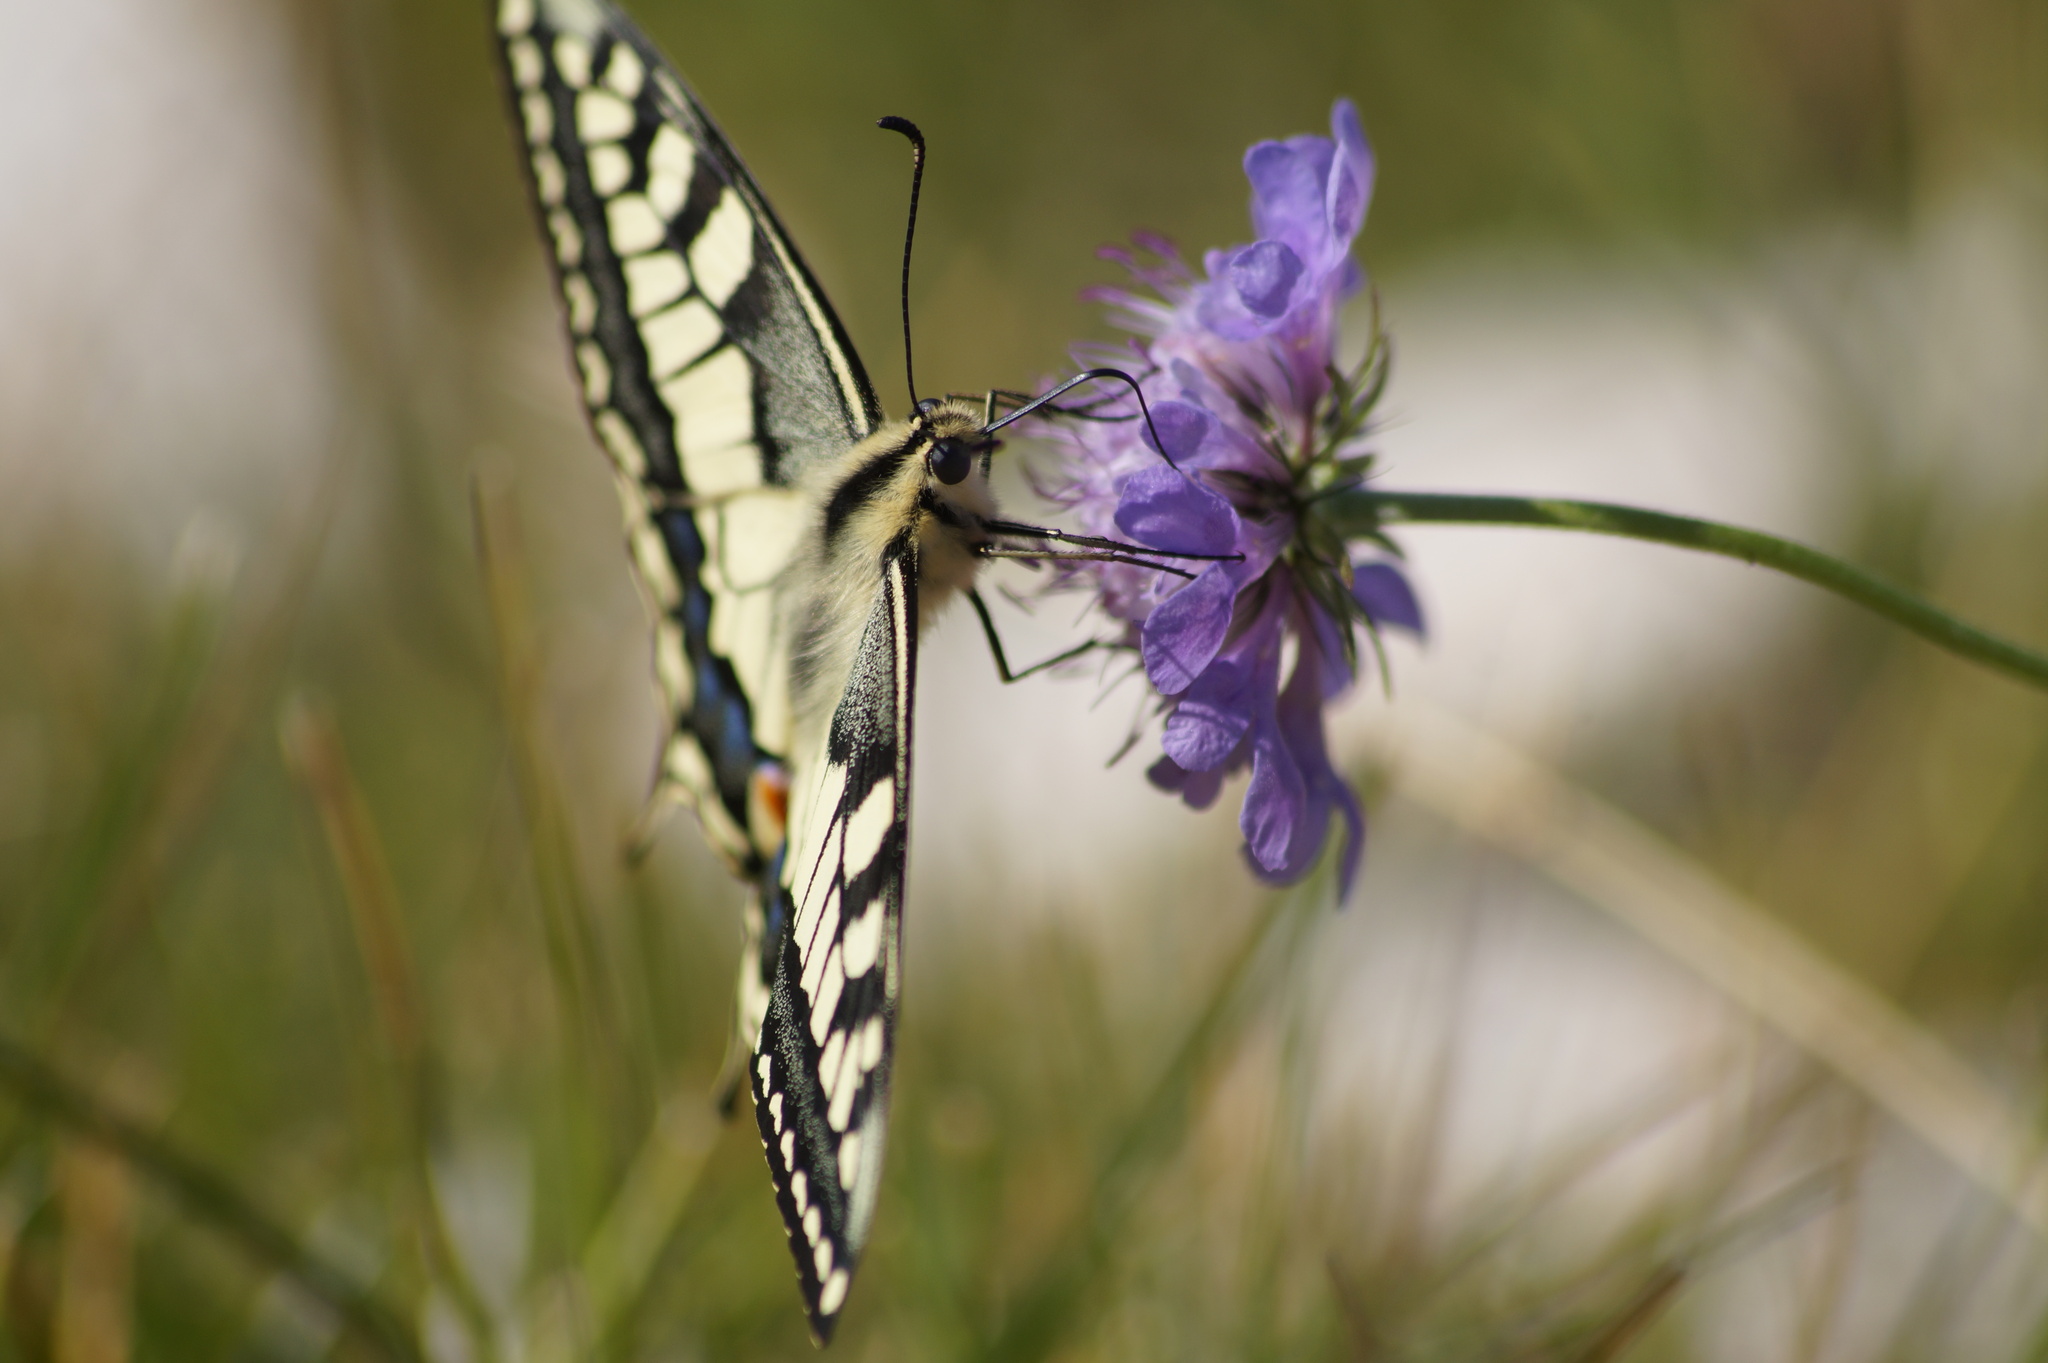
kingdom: Animalia
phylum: Arthropoda
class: Insecta
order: Lepidoptera
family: Papilionidae
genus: Papilio
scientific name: Papilio machaon
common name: Swallowtail
